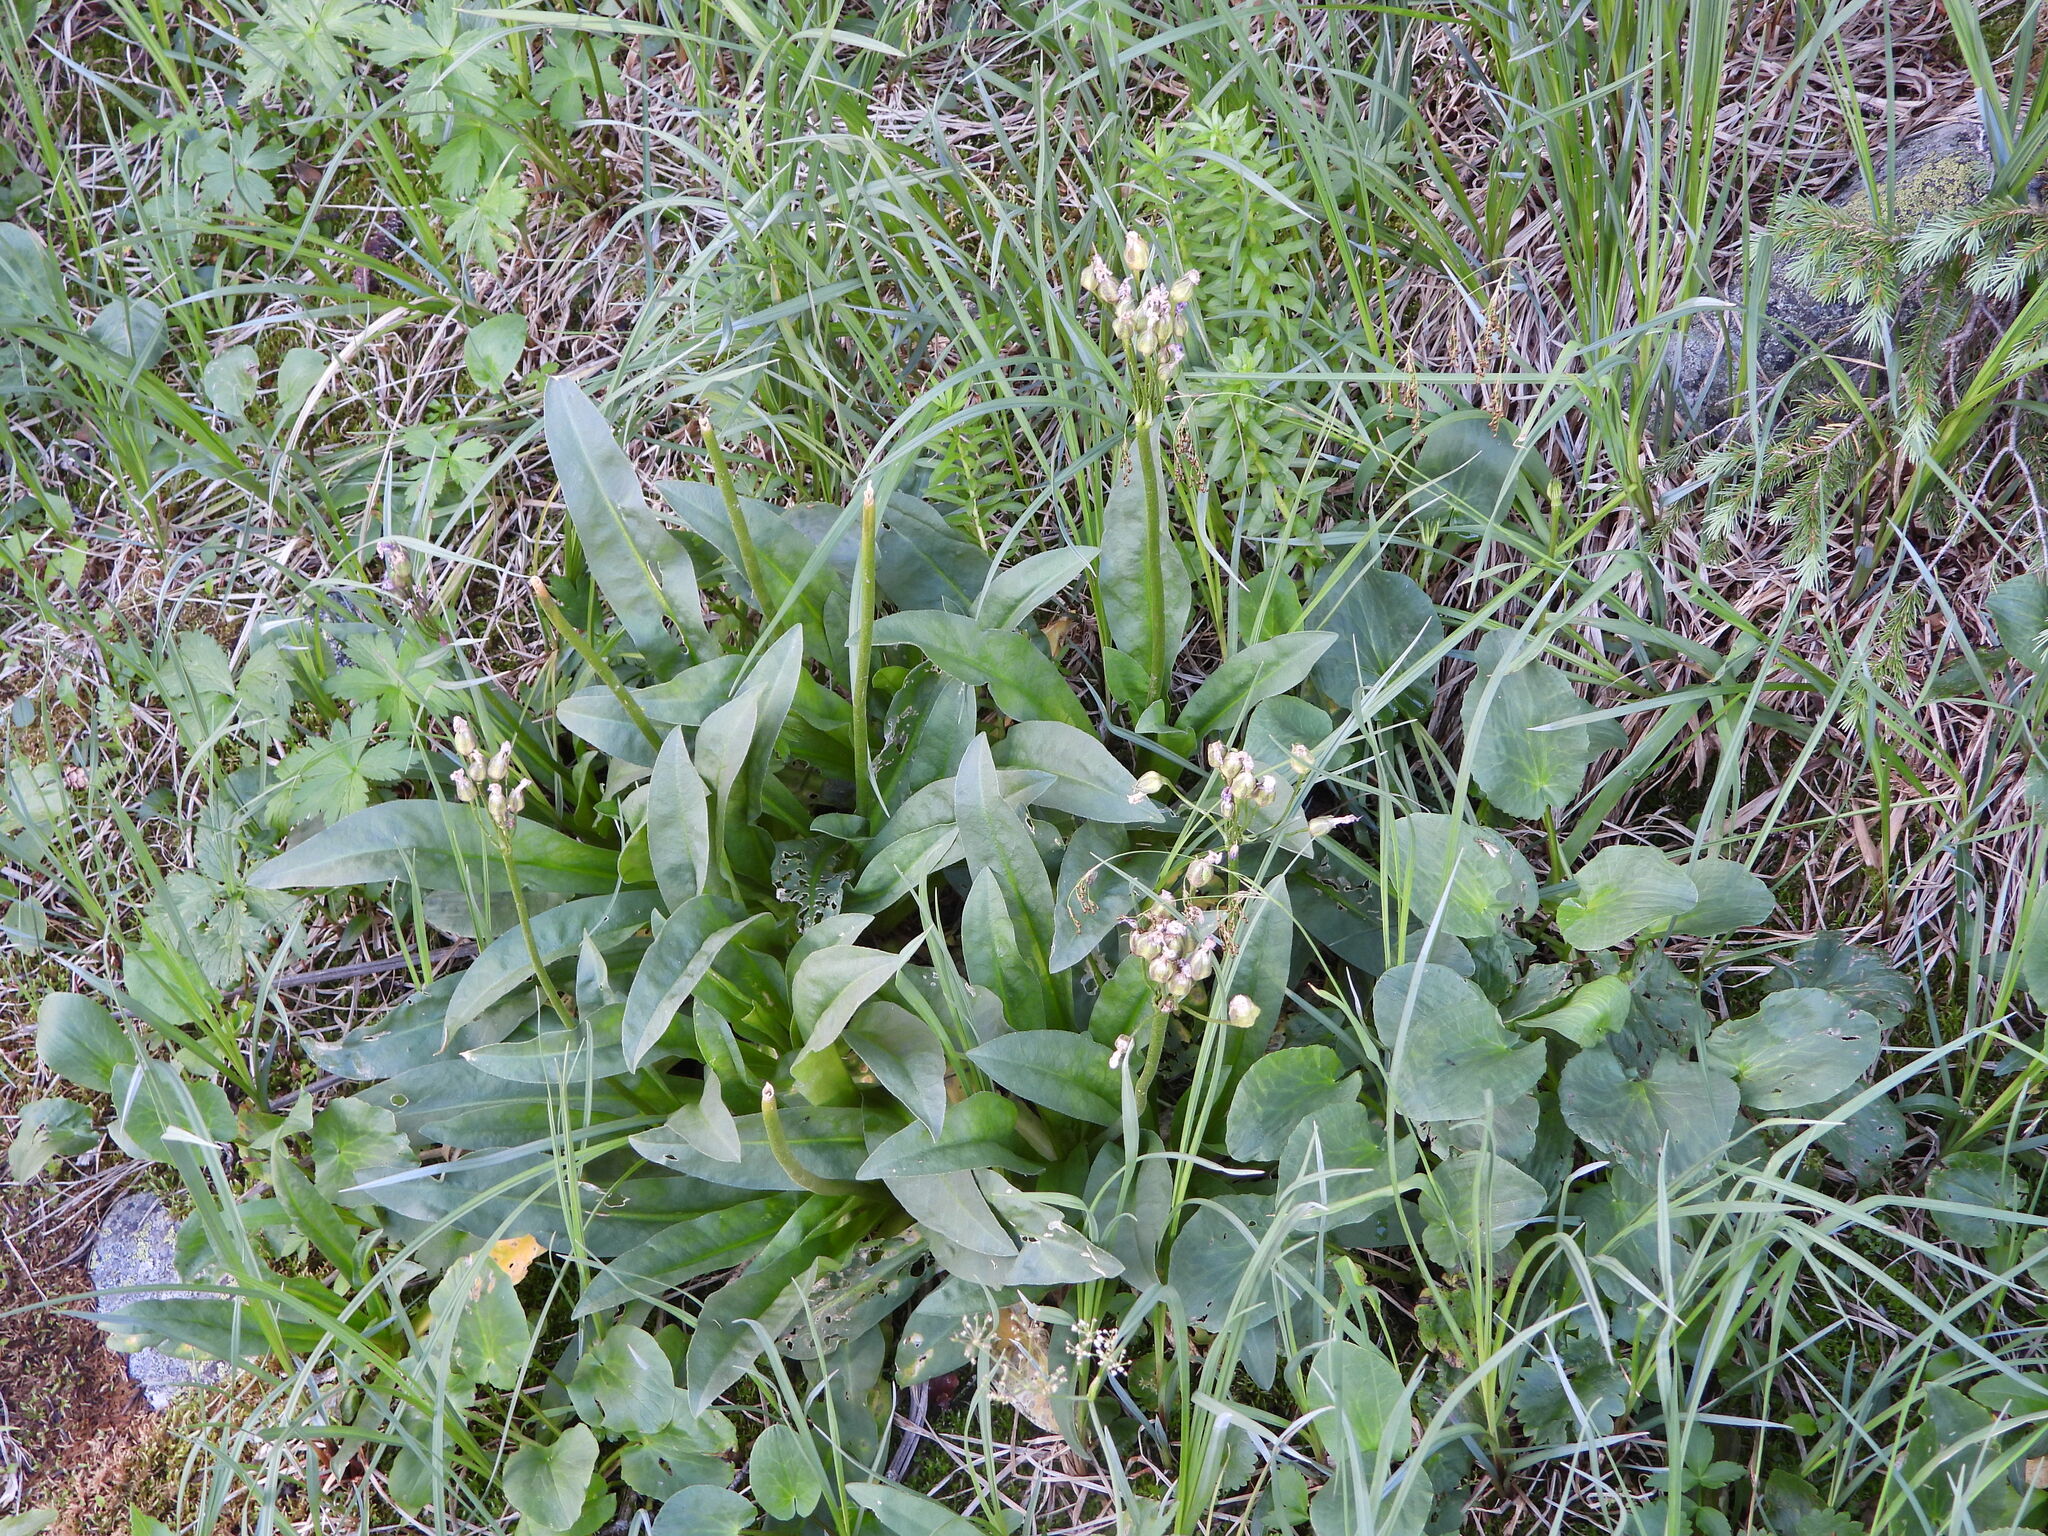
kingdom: Plantae
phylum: Tracheophyta
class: Magnoliopsida
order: Ericales
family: Primulaceae
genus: Primula
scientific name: Primula parryi
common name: Parry's primrose
